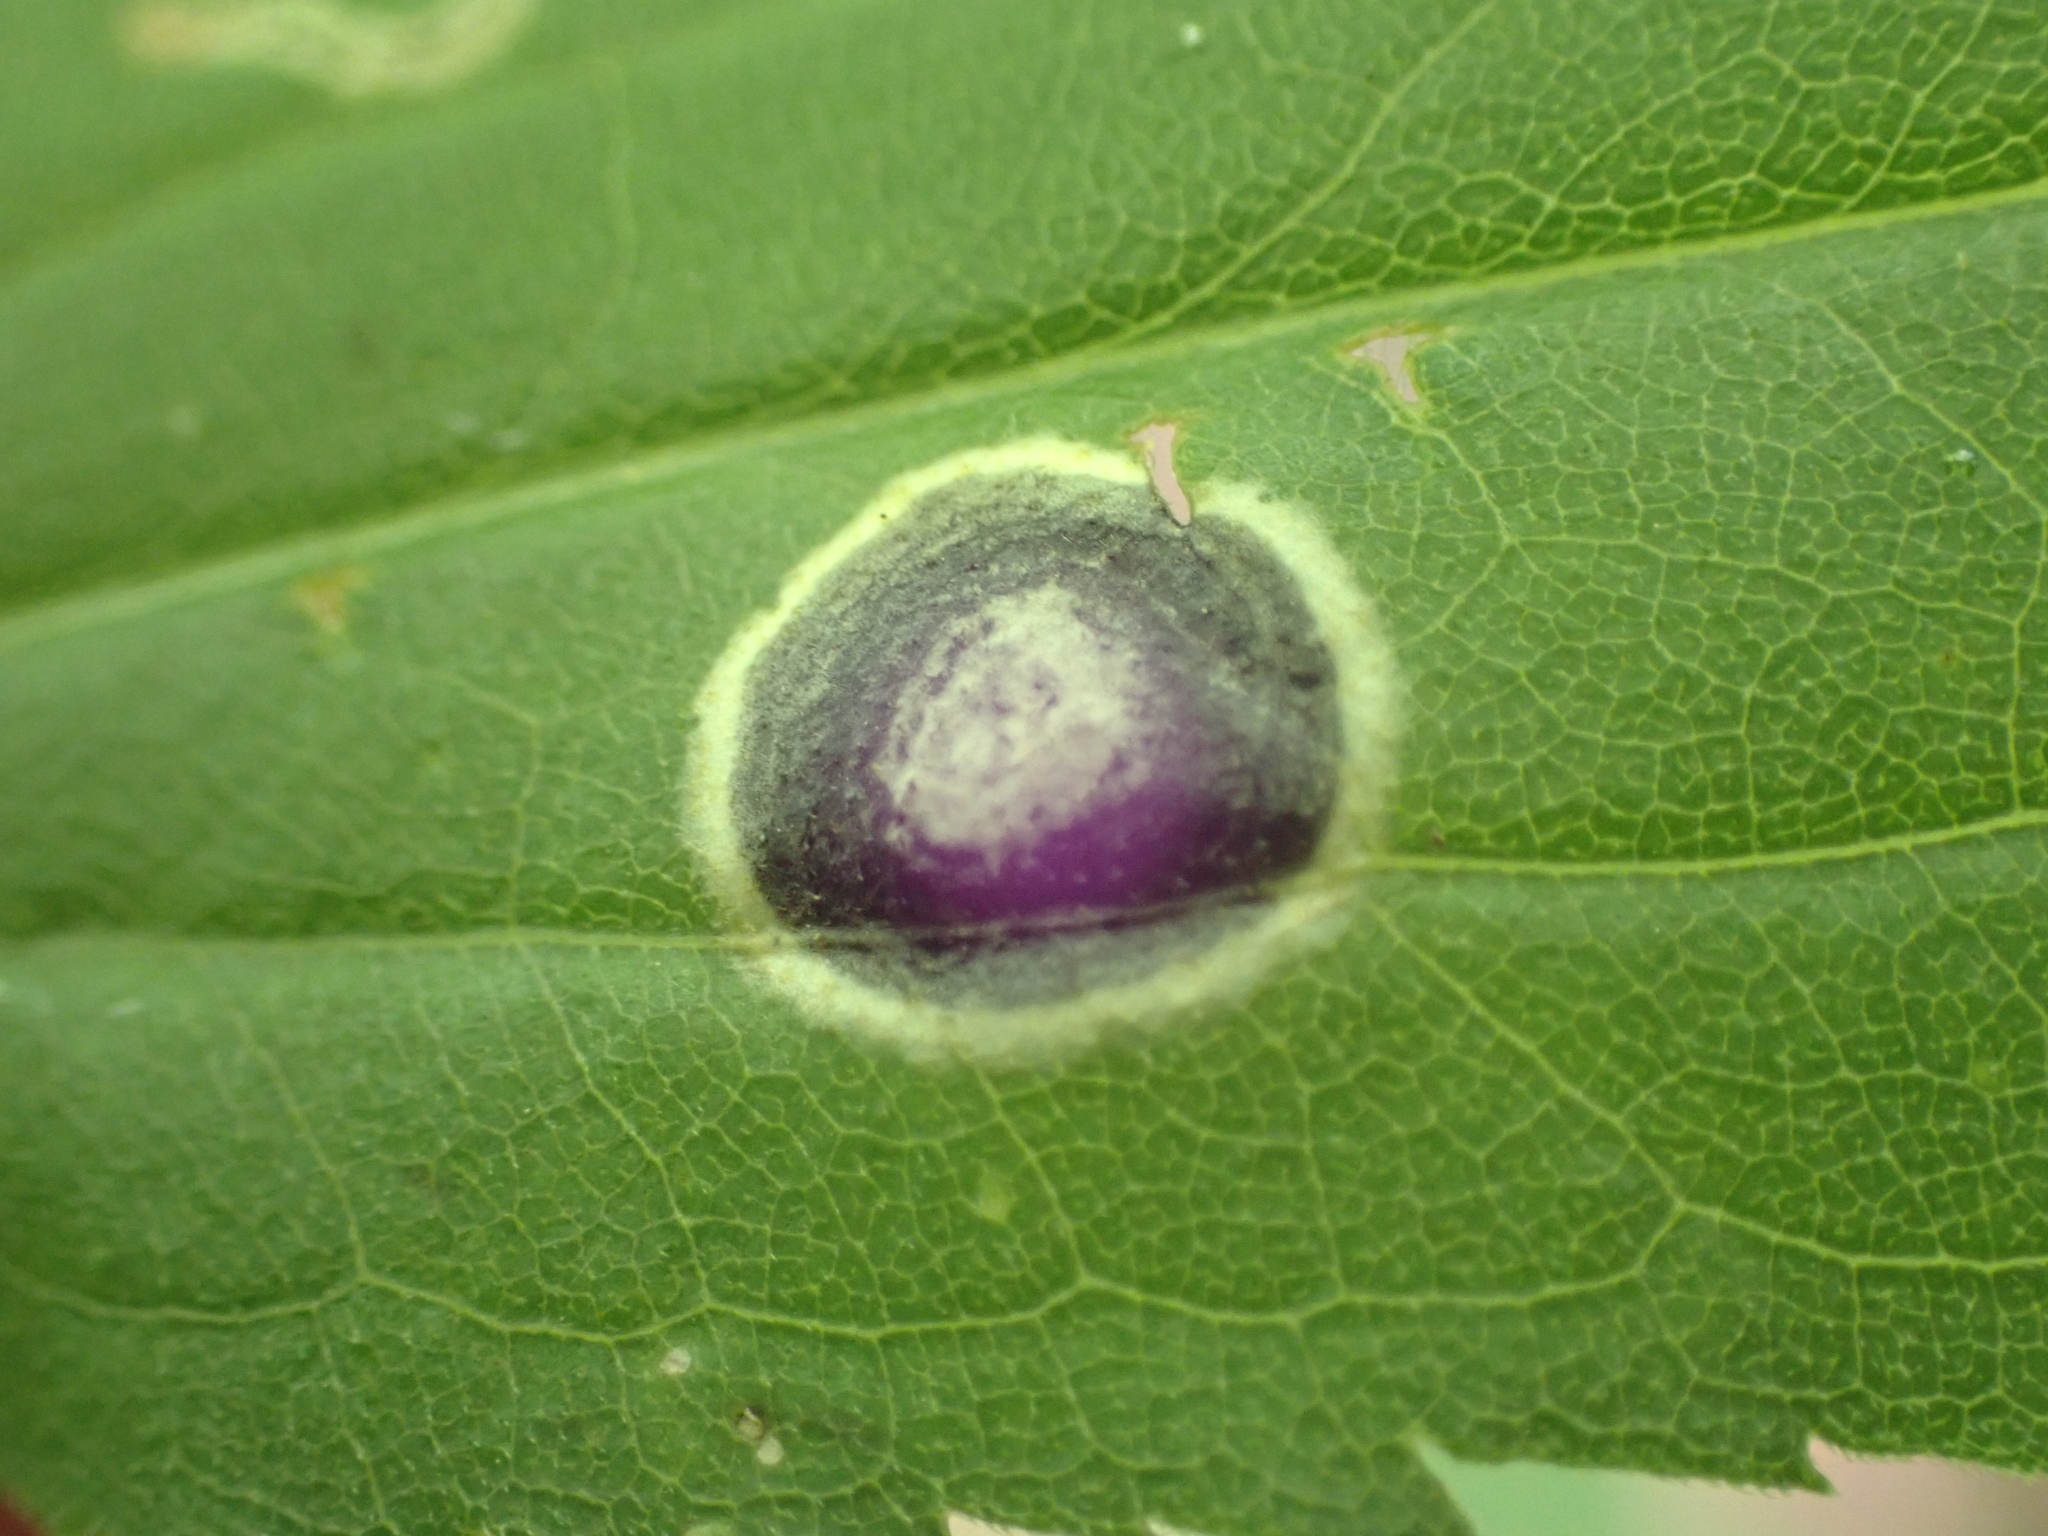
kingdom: Animalia
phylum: Arthropoda
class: Insecta
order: Diptera
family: Cecidomyiidae
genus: Asteromyia
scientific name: Asteromyia carbonifera
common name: Carbonifera goldenrod gall midge
